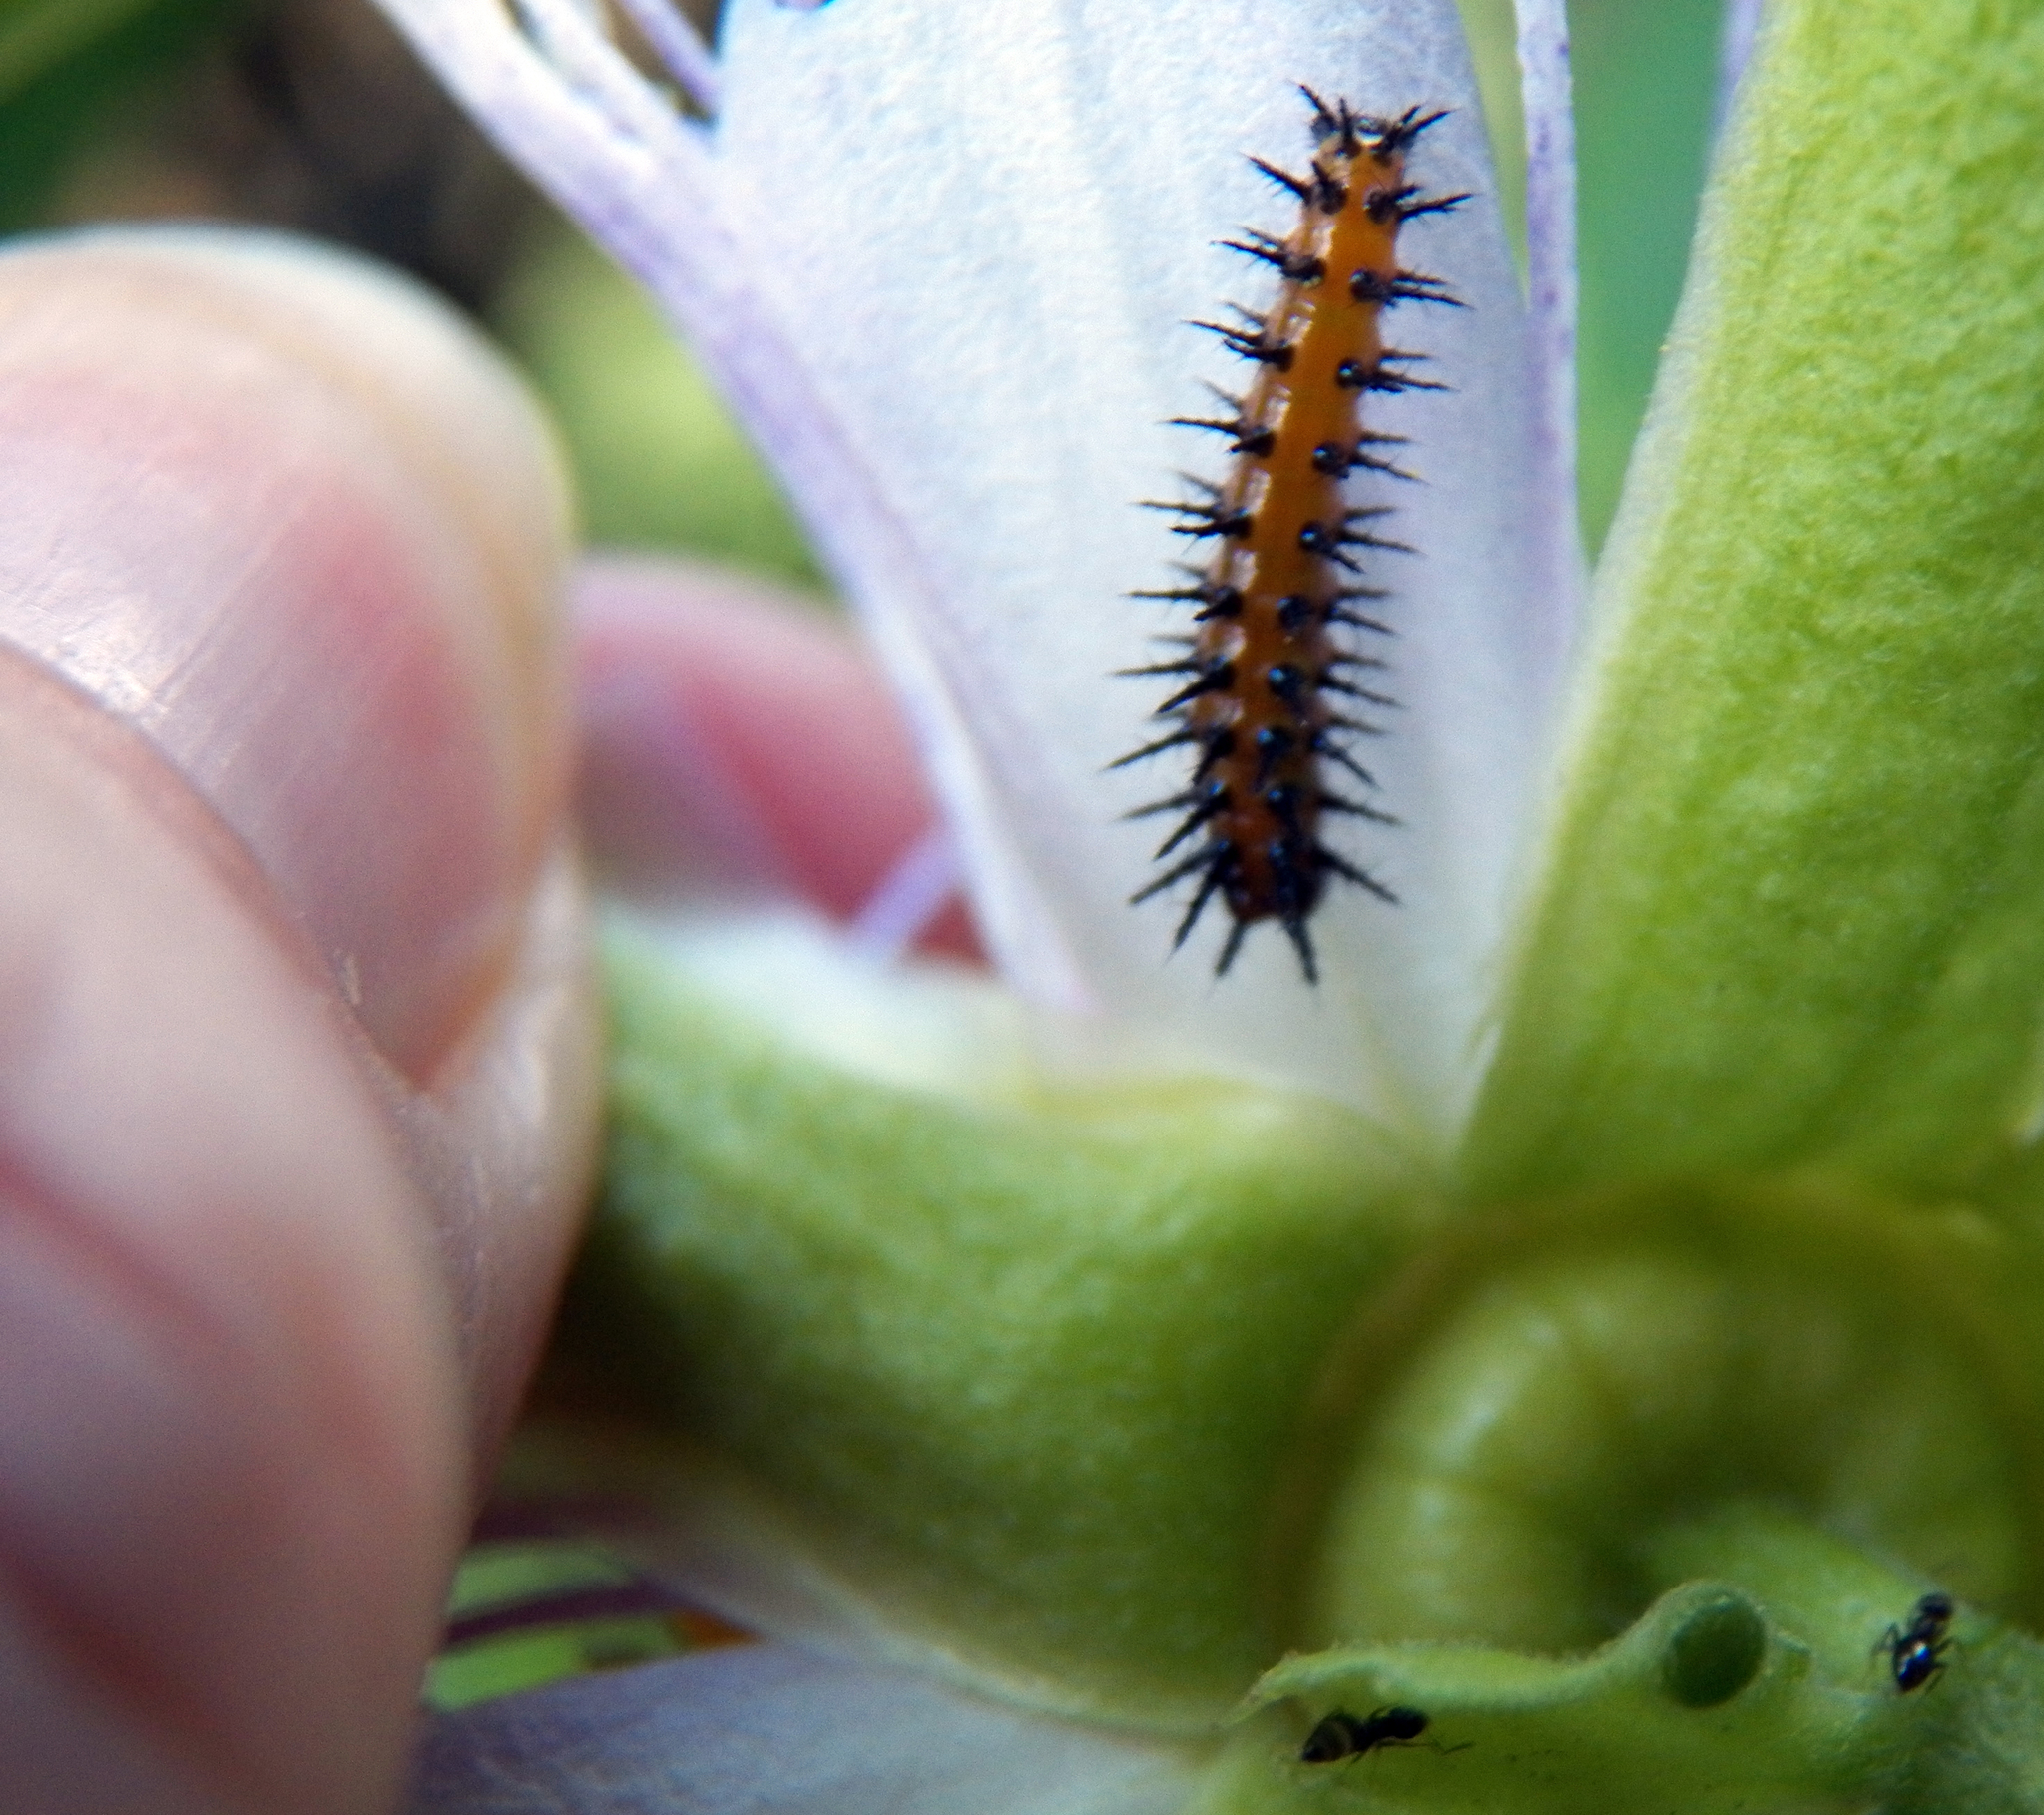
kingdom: Animalia
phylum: Arthropoda
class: Insecta
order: Lepidoptera
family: Nymphalidae
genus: Dione
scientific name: Dione vanillae
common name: Gulf fritillary
